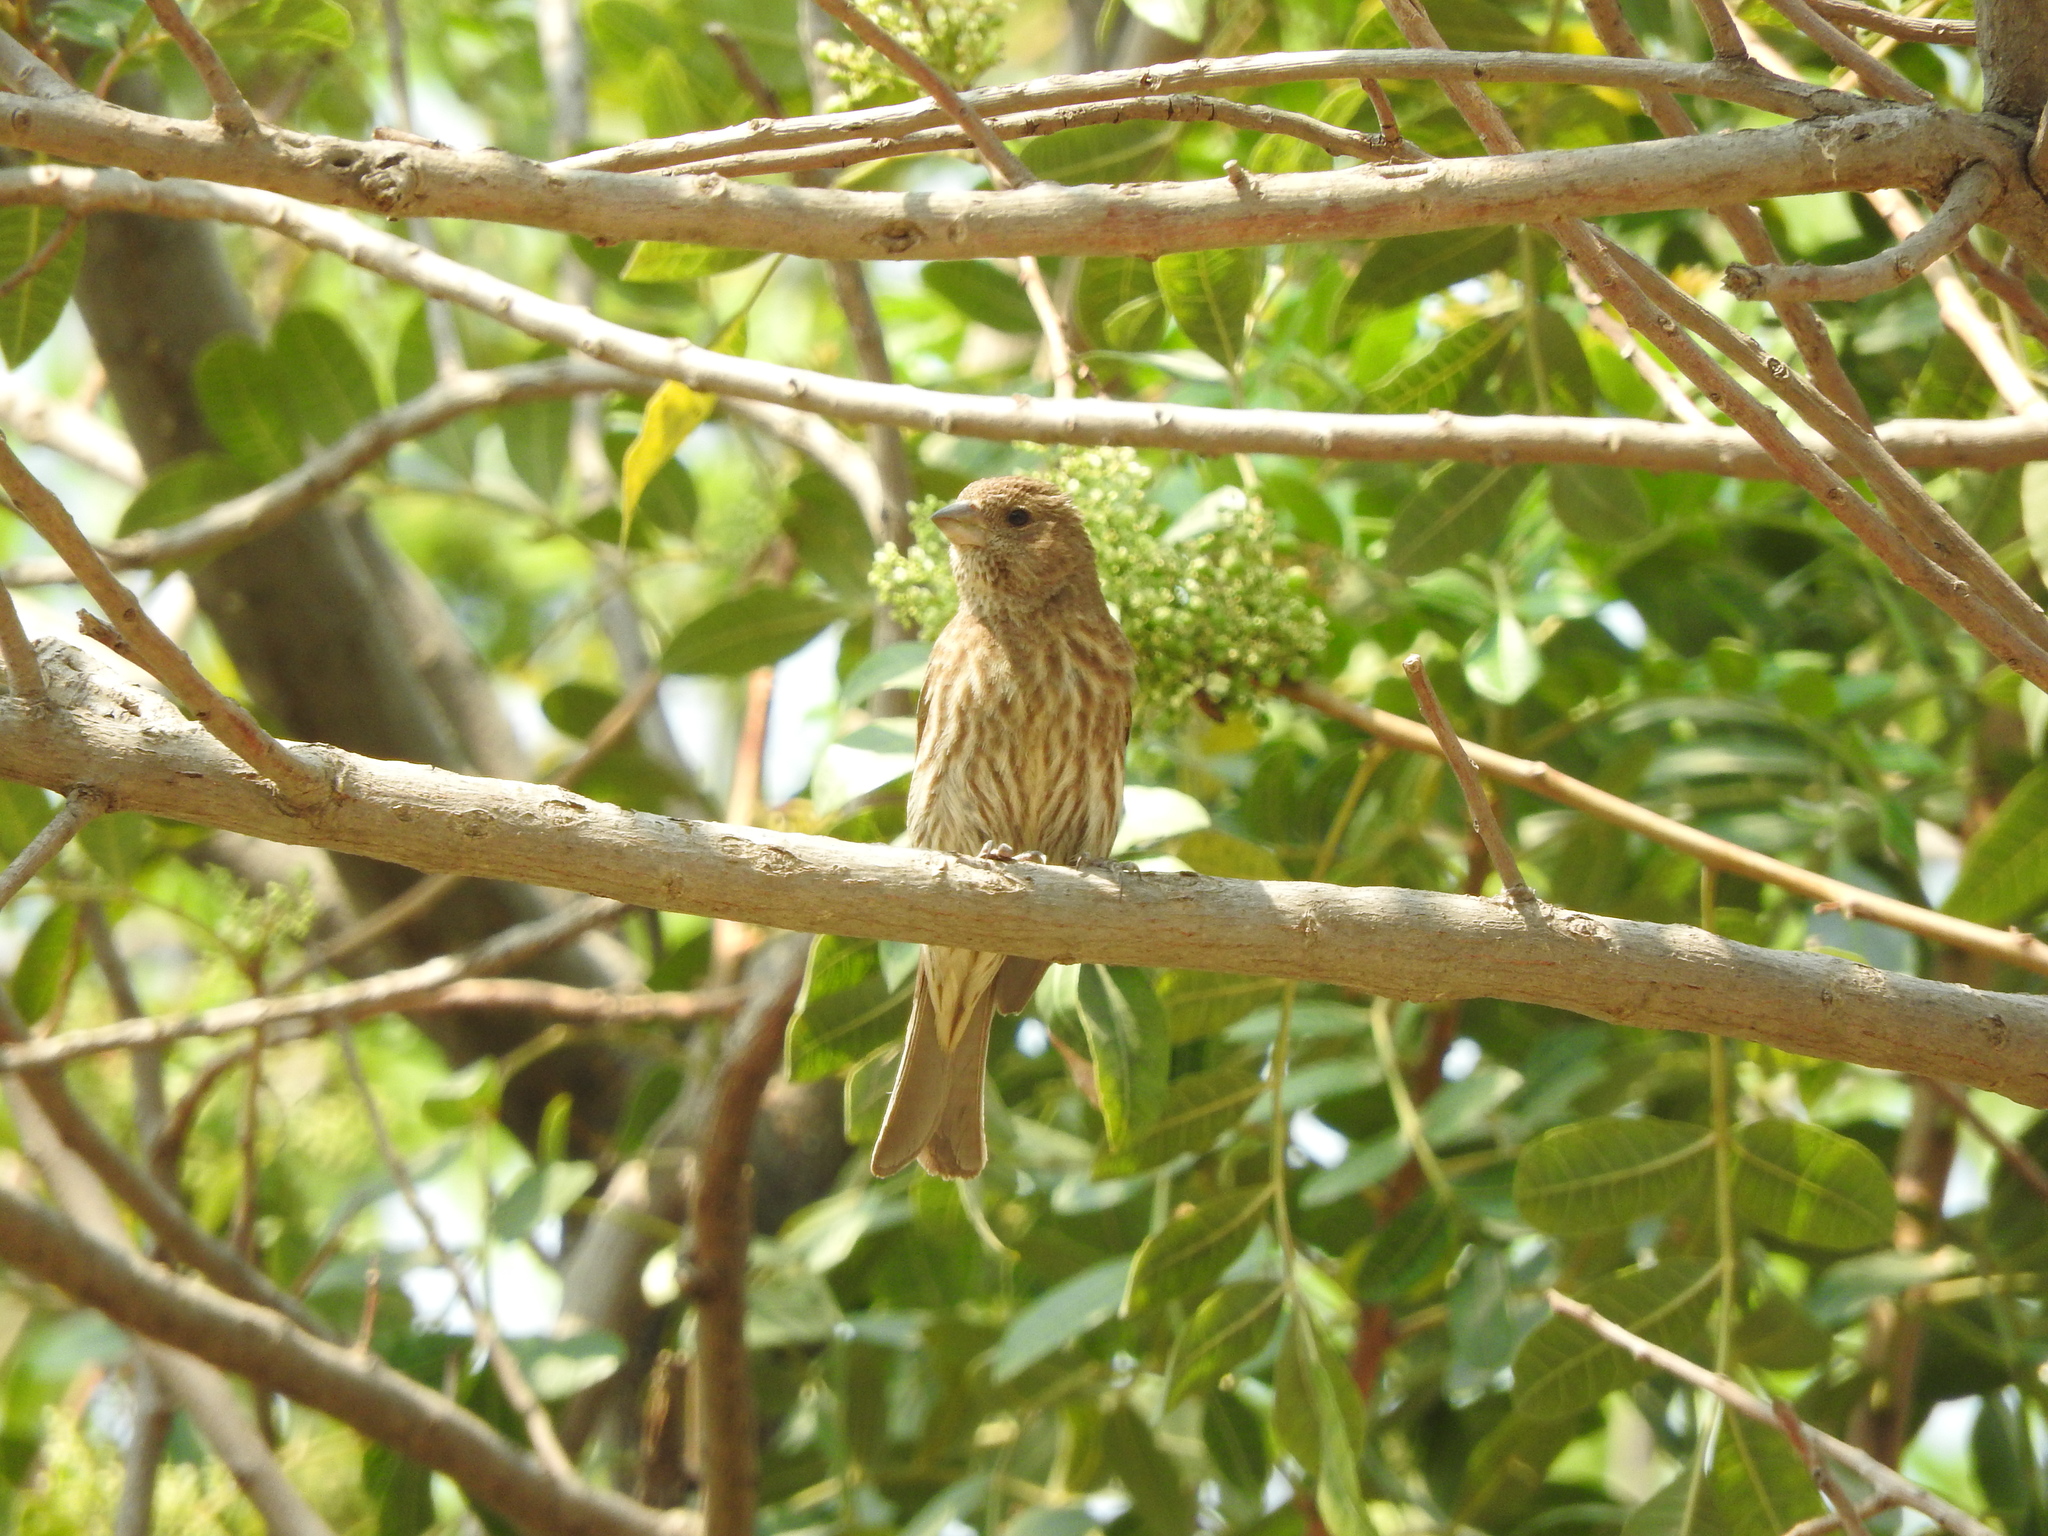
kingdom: Animalia
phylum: Chordata
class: Aves
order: Passeriformes
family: Fringillidae
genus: Haemorhous
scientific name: Haemorhous mexicanus
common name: House finch
